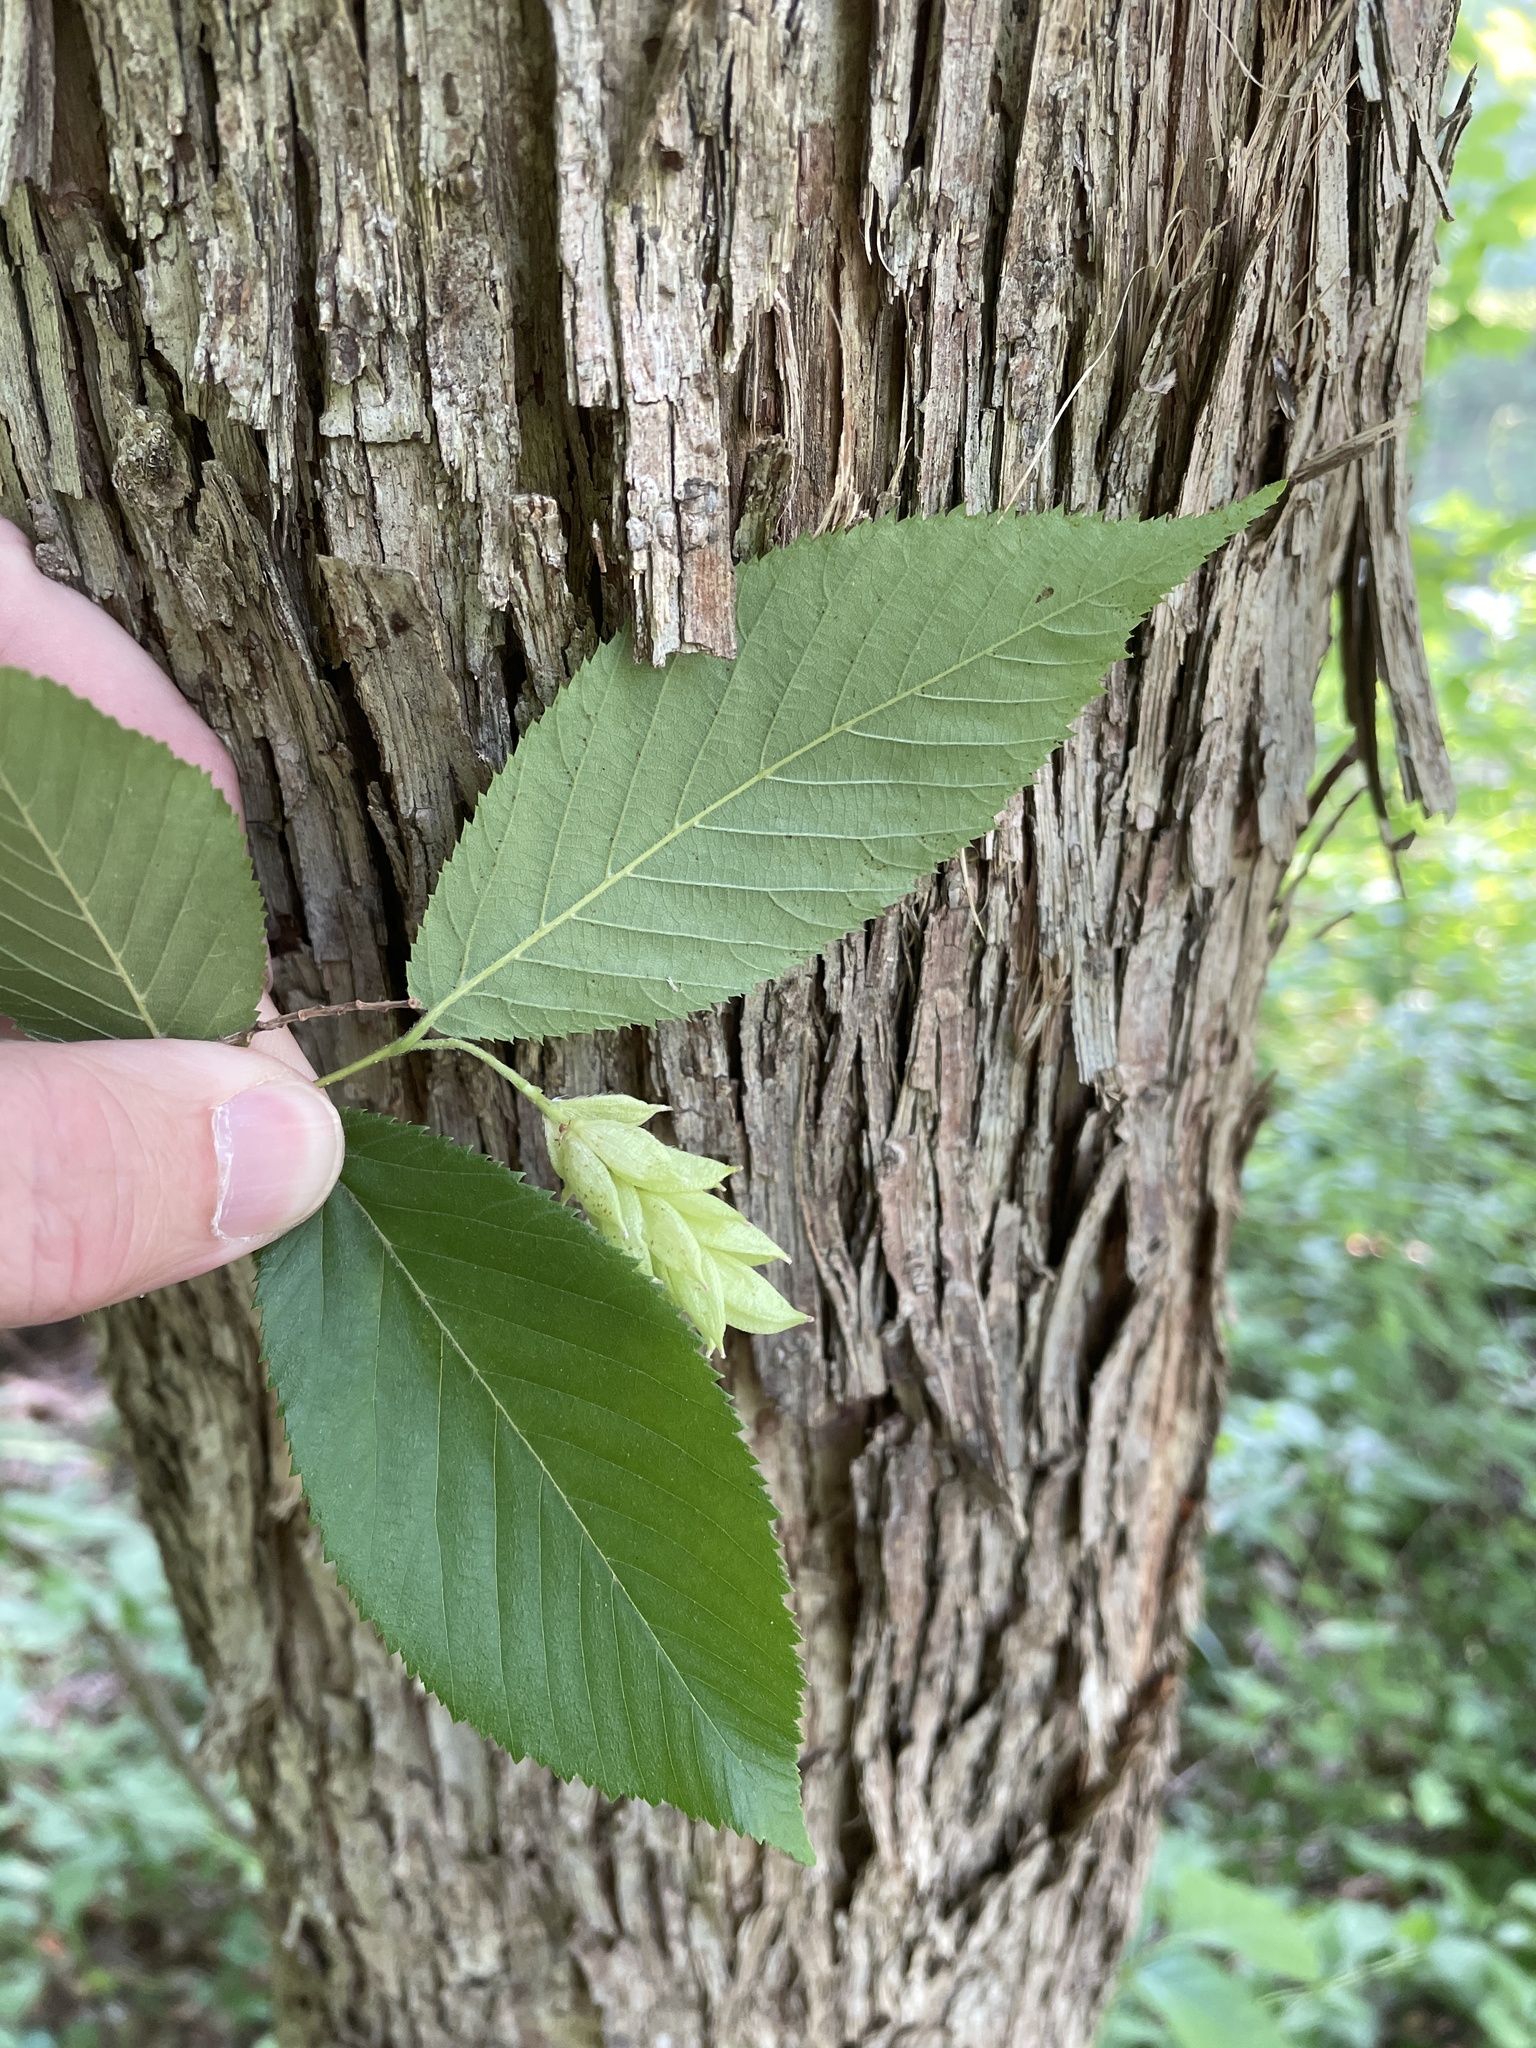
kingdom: Plantae
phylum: Tracheophyta
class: Magnoliopsida
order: Fagales
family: Betulaceae
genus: Ostrya
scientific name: Ostrya virginiana
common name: Ironwood
